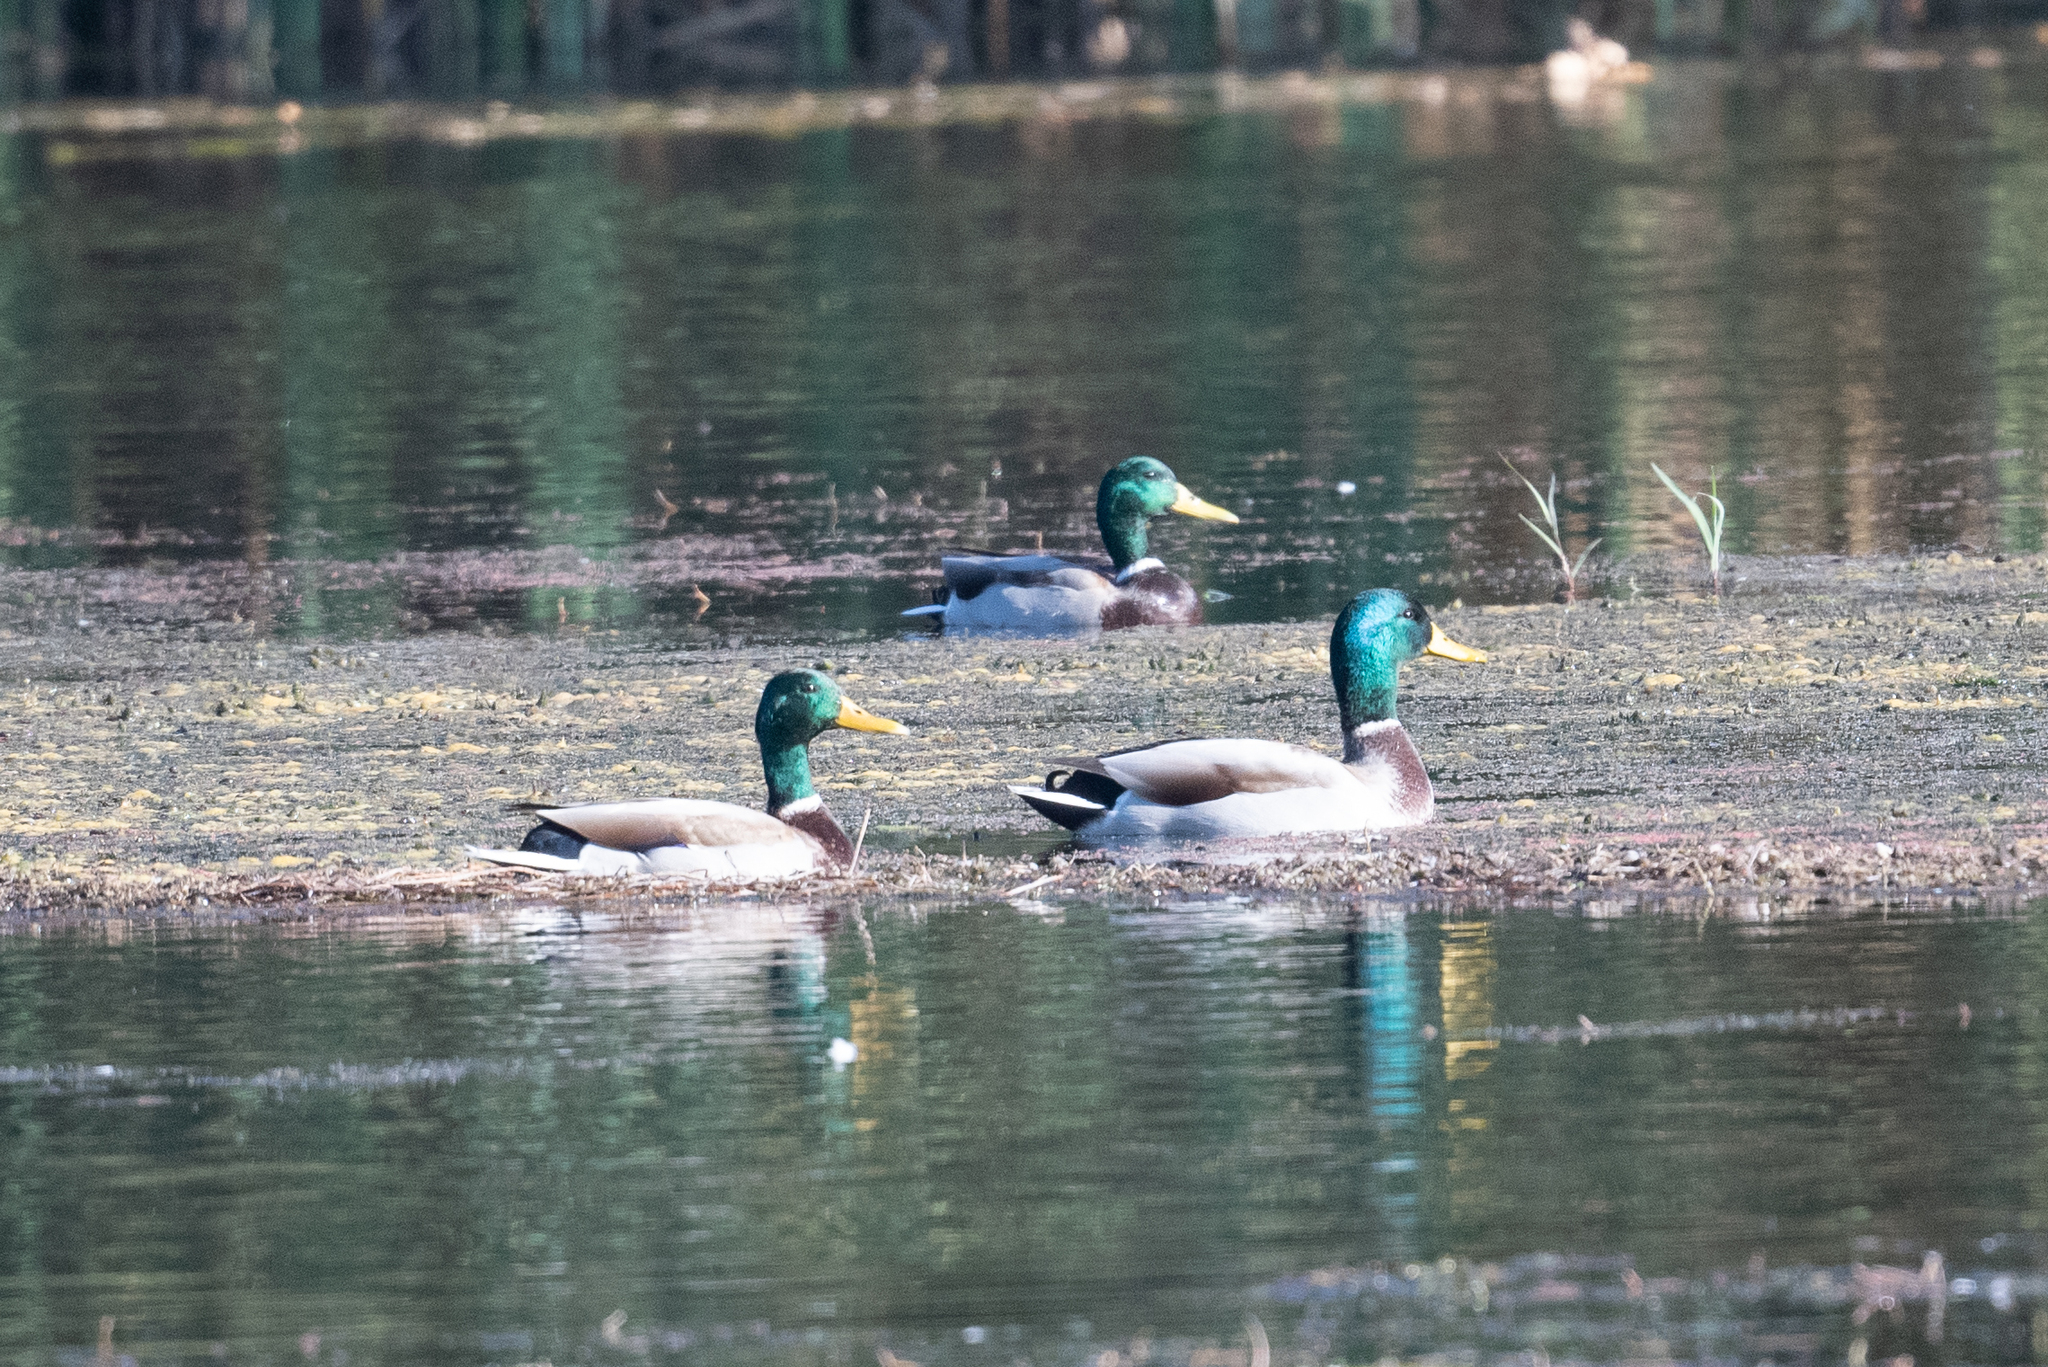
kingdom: Animalia
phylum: Chordata
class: Aves
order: Anseriformes
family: Anatidae
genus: Anas
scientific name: Anas platyrhynchos
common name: Mallard
